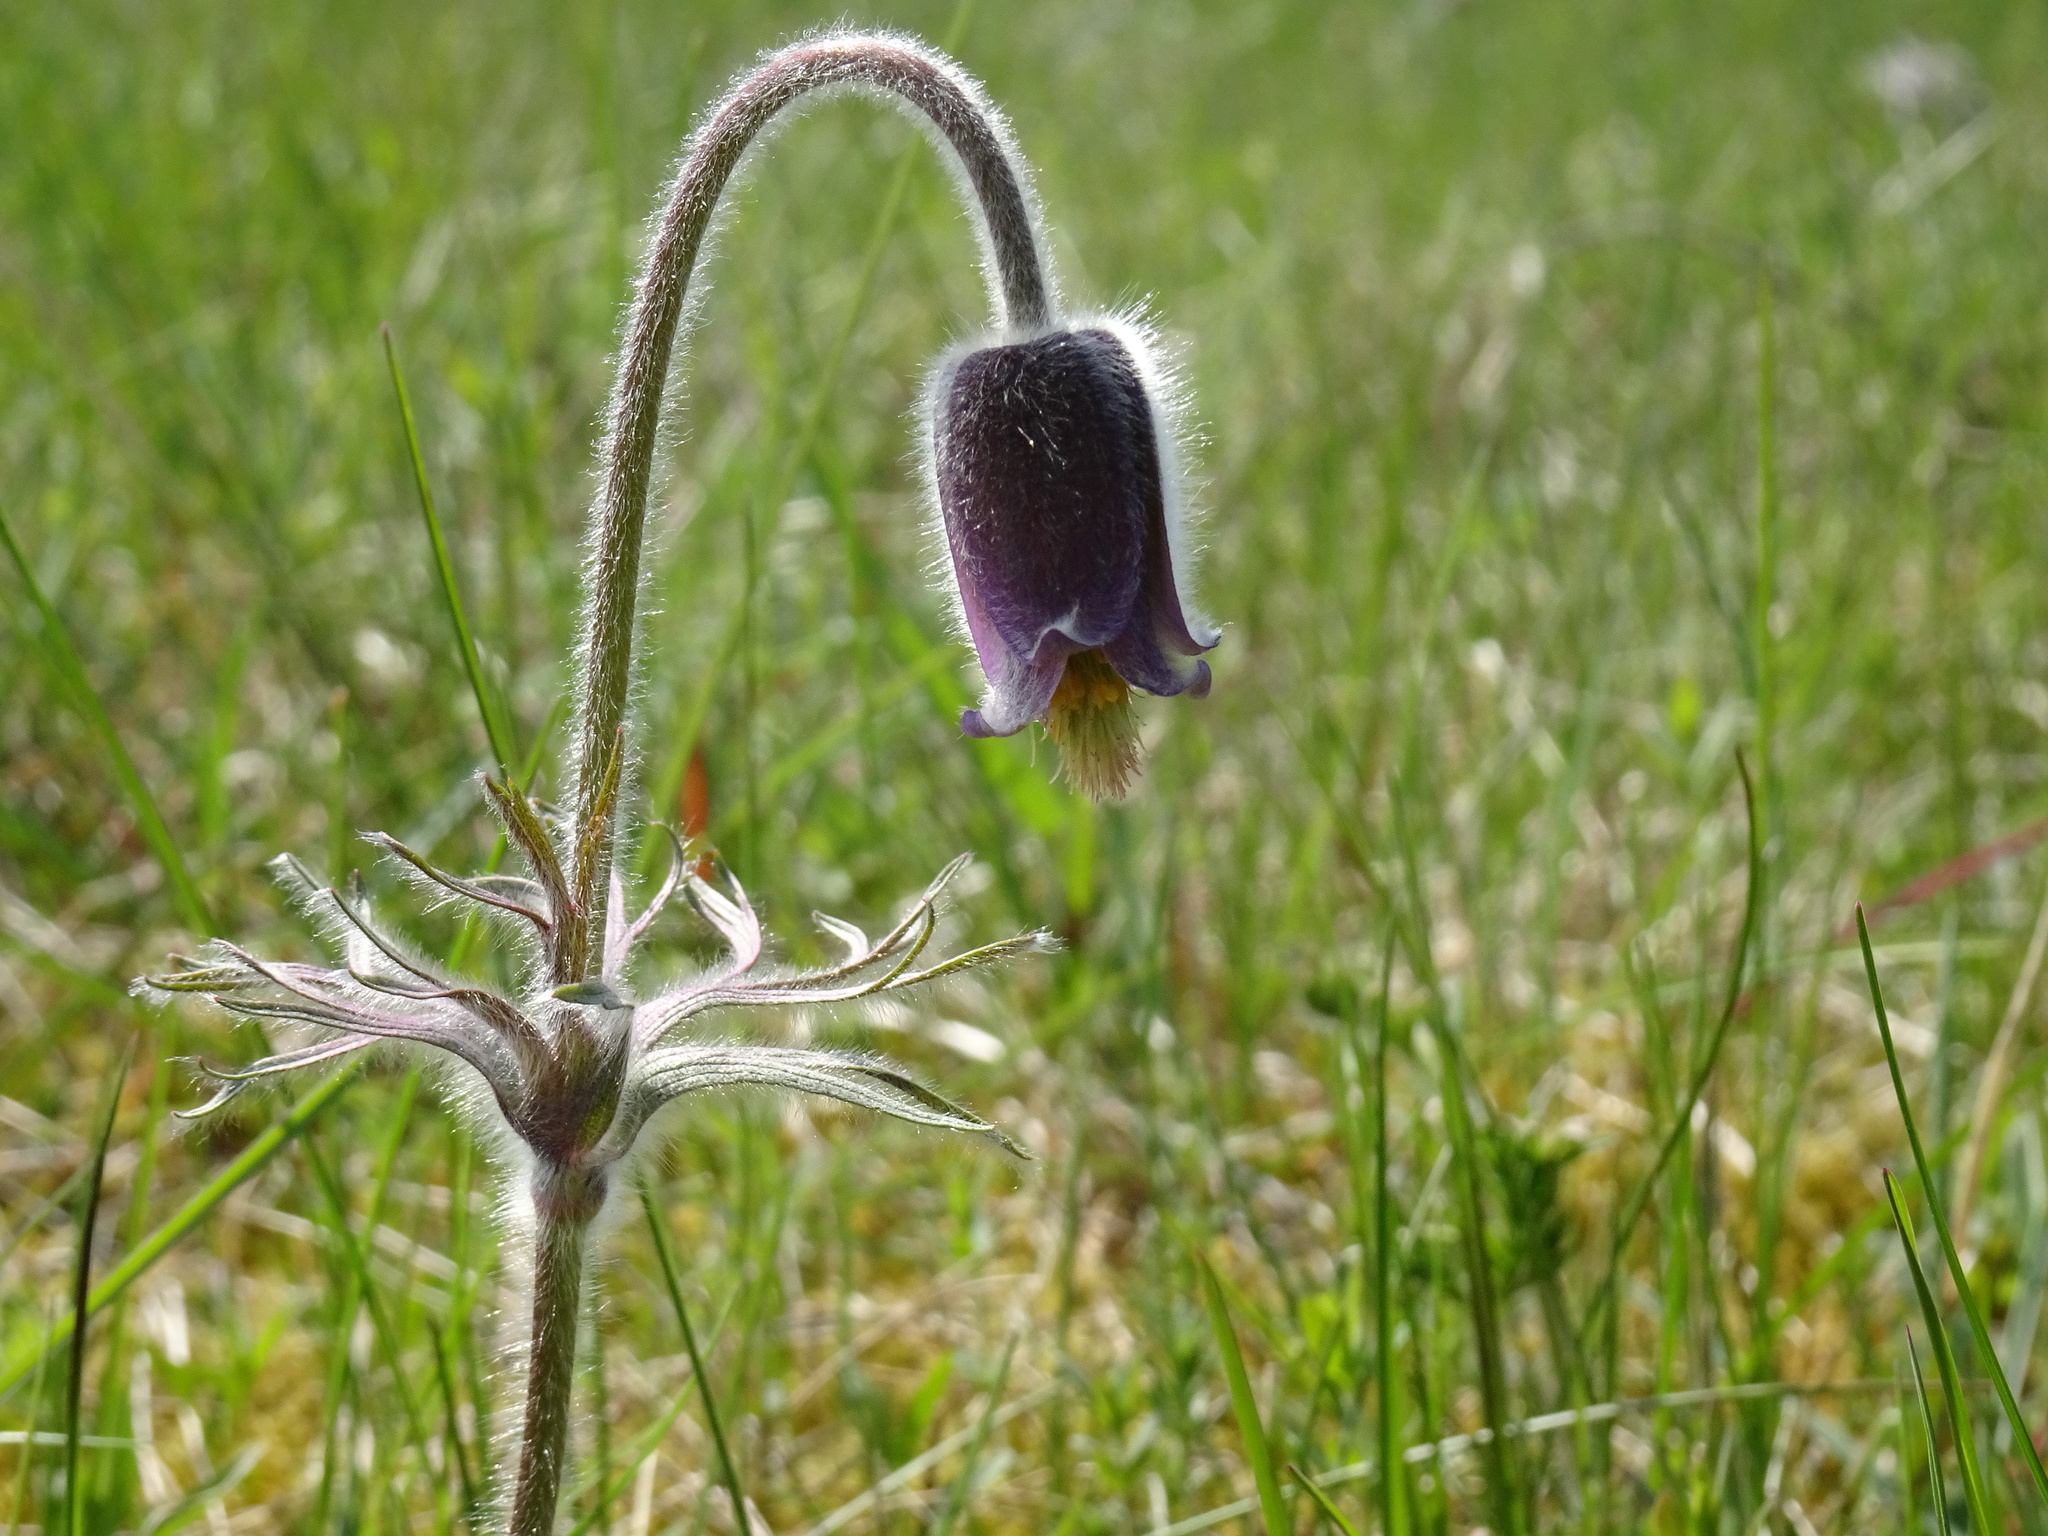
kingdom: Plantae
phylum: Tracheophyta
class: Magnoliopsida
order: Ranunculales
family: Ranunculaceae
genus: Pulsatilla
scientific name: Pulsatilla pratensis
